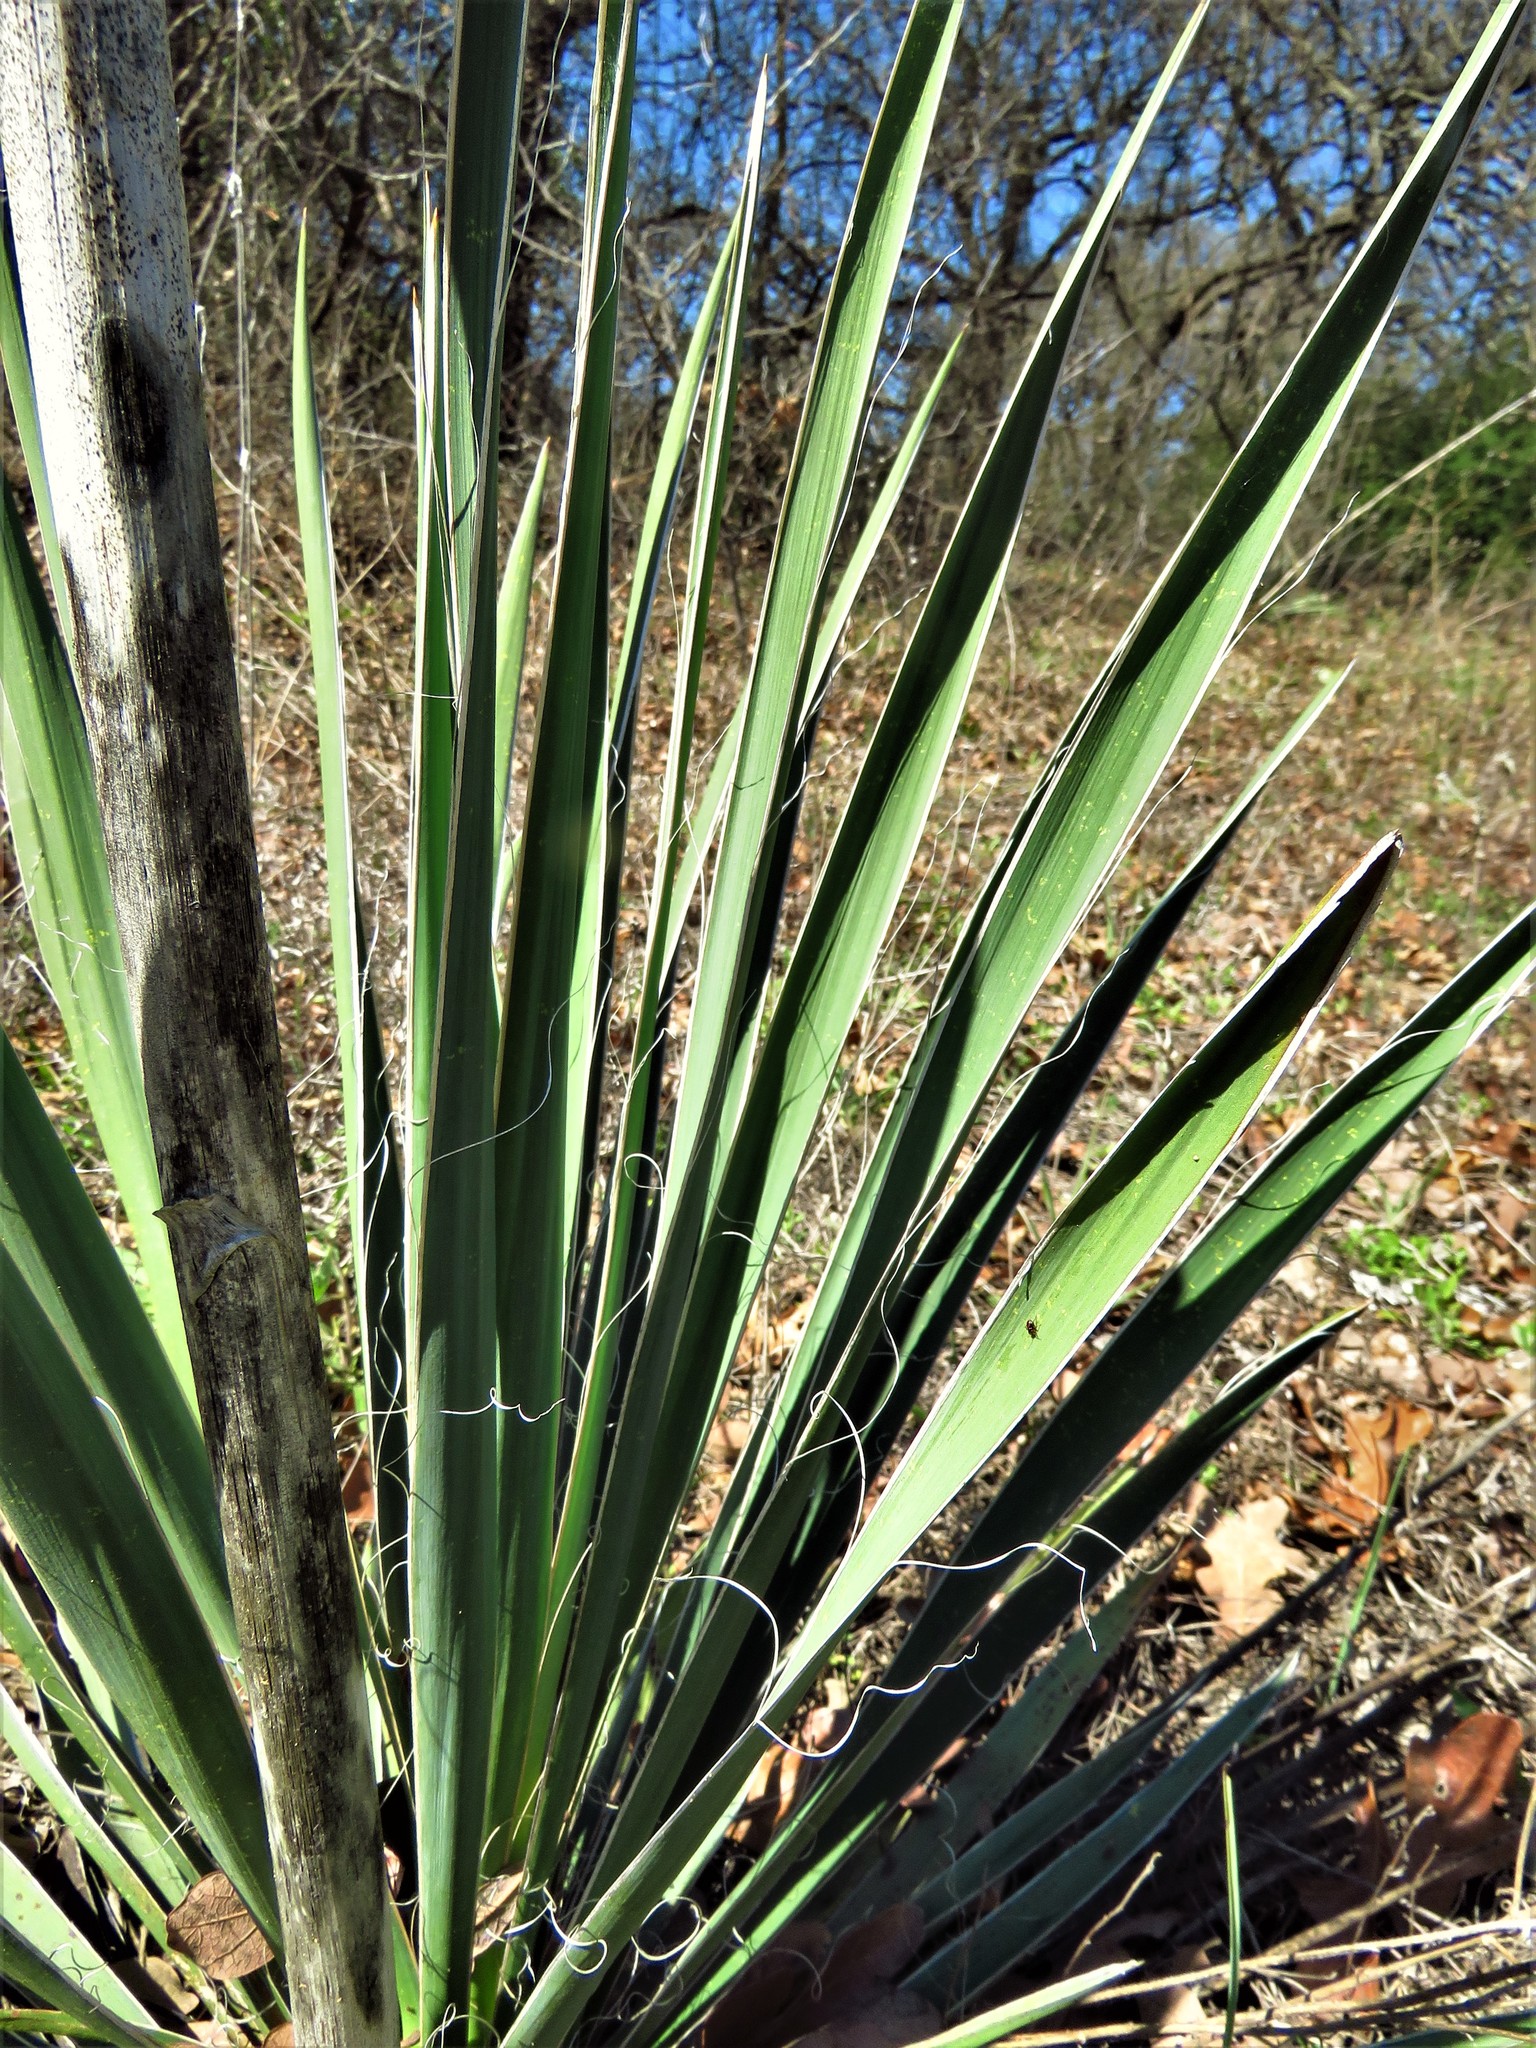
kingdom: Plantae
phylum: Tracheophyta
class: Liliopsida
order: Asparagales
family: Asparagaceae
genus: Yucca
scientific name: Yucca necopina
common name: Glen rose yucca
